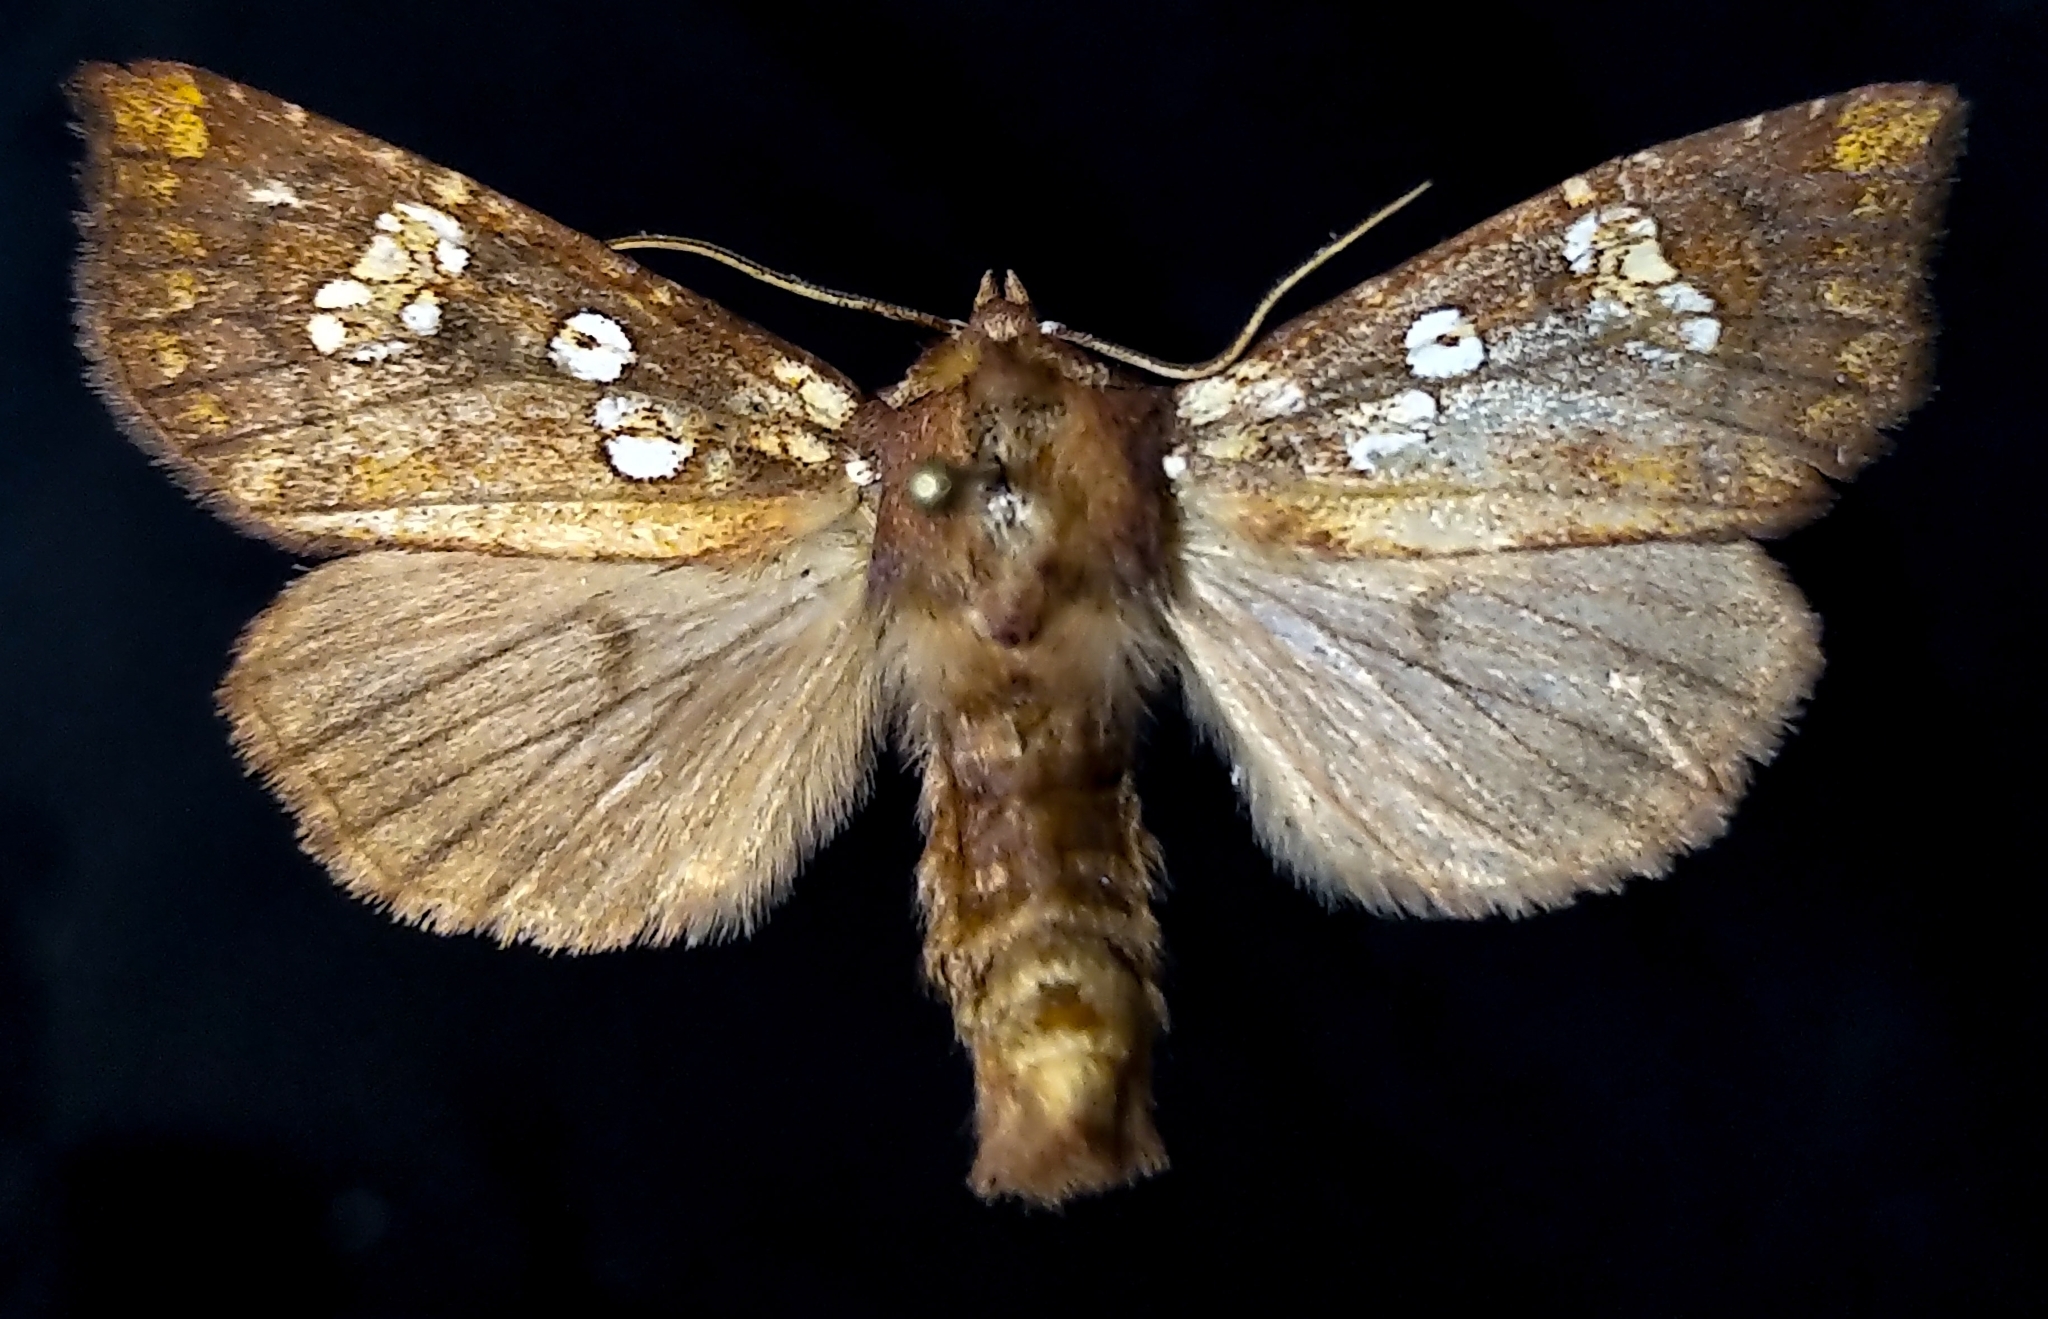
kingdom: Animalia
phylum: Arthropoda
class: Insecta
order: Lepidoptera
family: Noctuidae
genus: Papaipema
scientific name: Papaipema insulidens
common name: Ragwort stem borer moth
